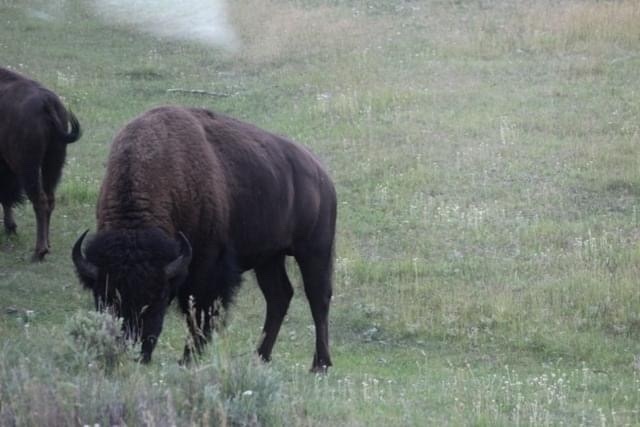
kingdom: Animalia
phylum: Chordata
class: Mammalia
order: Artiodactyla
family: Bovidae
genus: Bison
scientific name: Bison bison
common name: American bison
